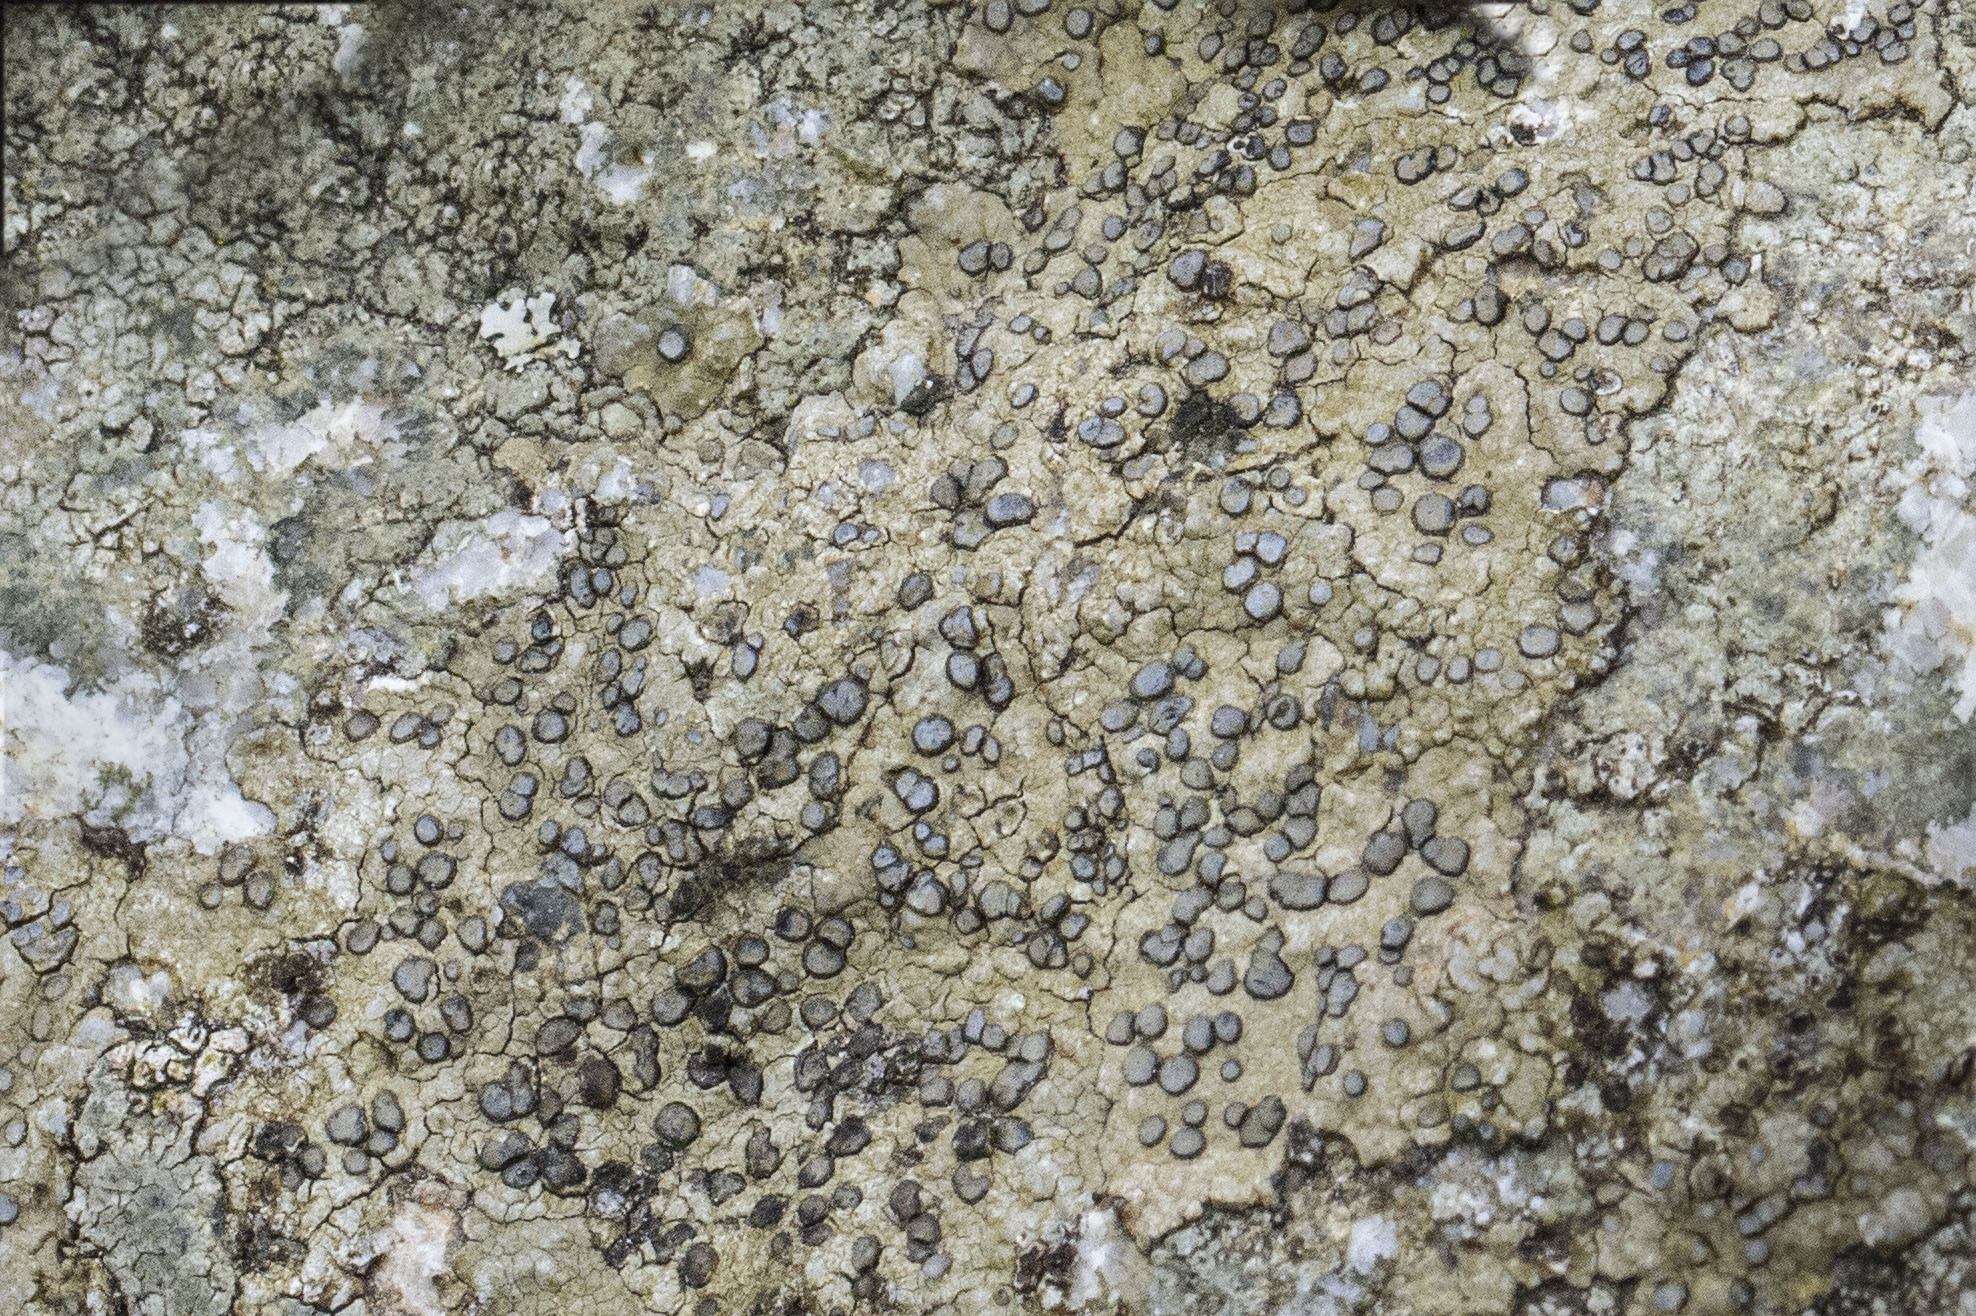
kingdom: Fungi
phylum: Ascomycota
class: Lecanoromycetes
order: Lecideales
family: Lecideaceae
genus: Porpidia
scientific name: Porpidia albocaerulescens
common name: Smokey-eyed boulder lichen
